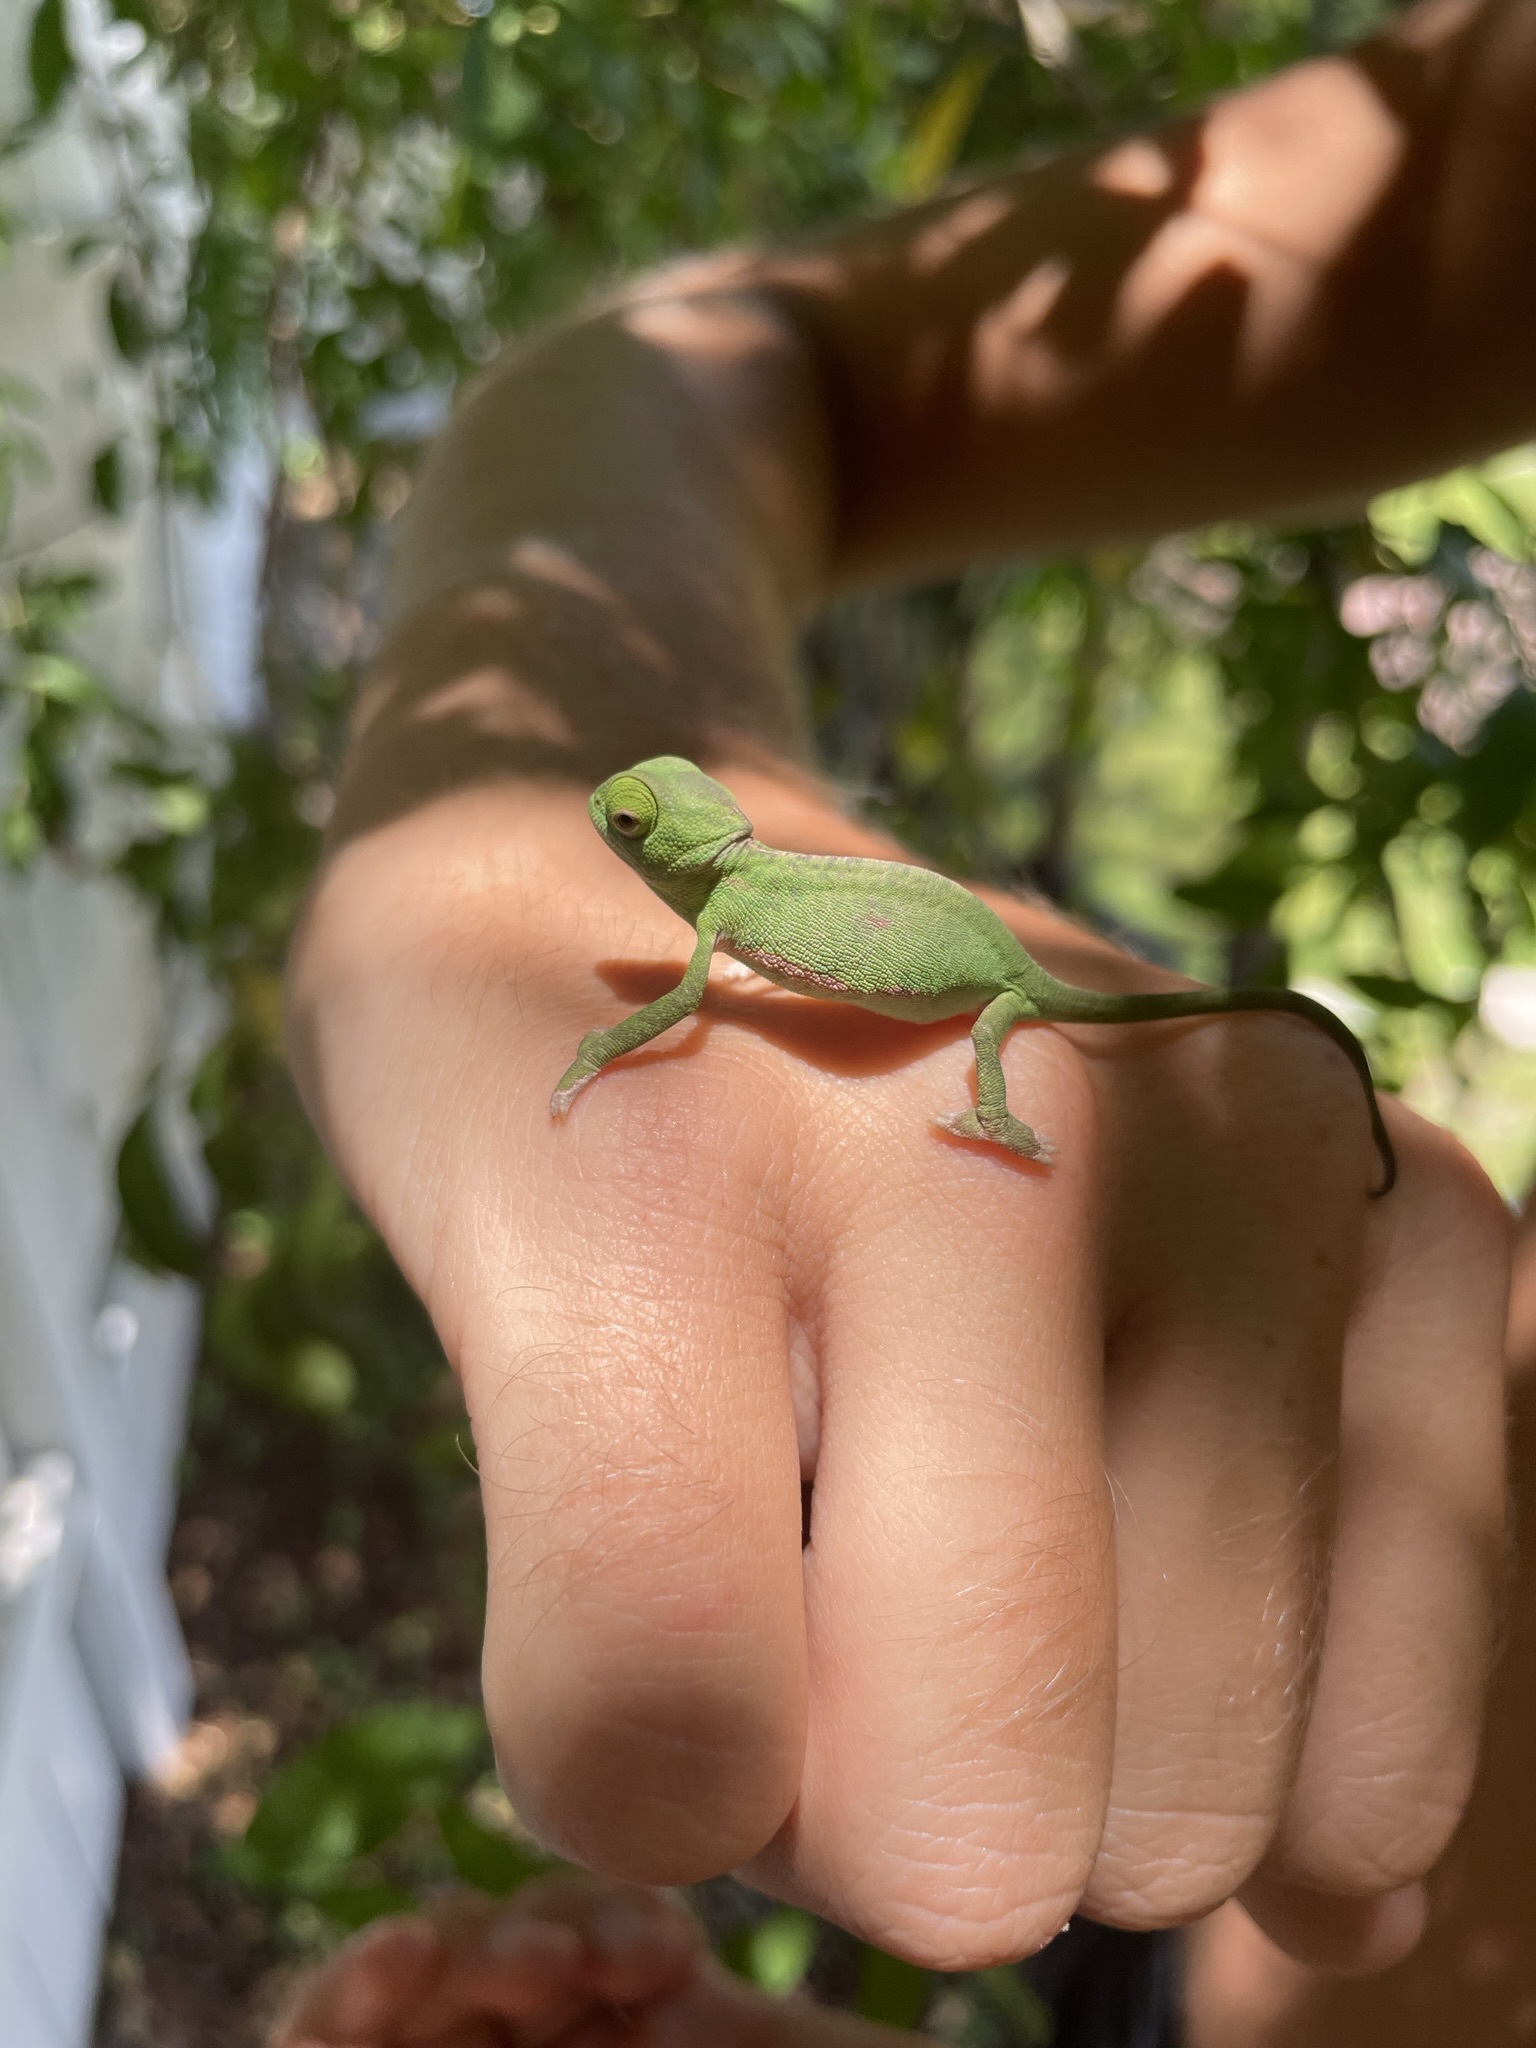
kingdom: Animalia
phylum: Chordata
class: Squamata
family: Chamaeleonidae
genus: Chamaeleo
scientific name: Chamaeleo calyptratus
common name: Veiled chameleon
